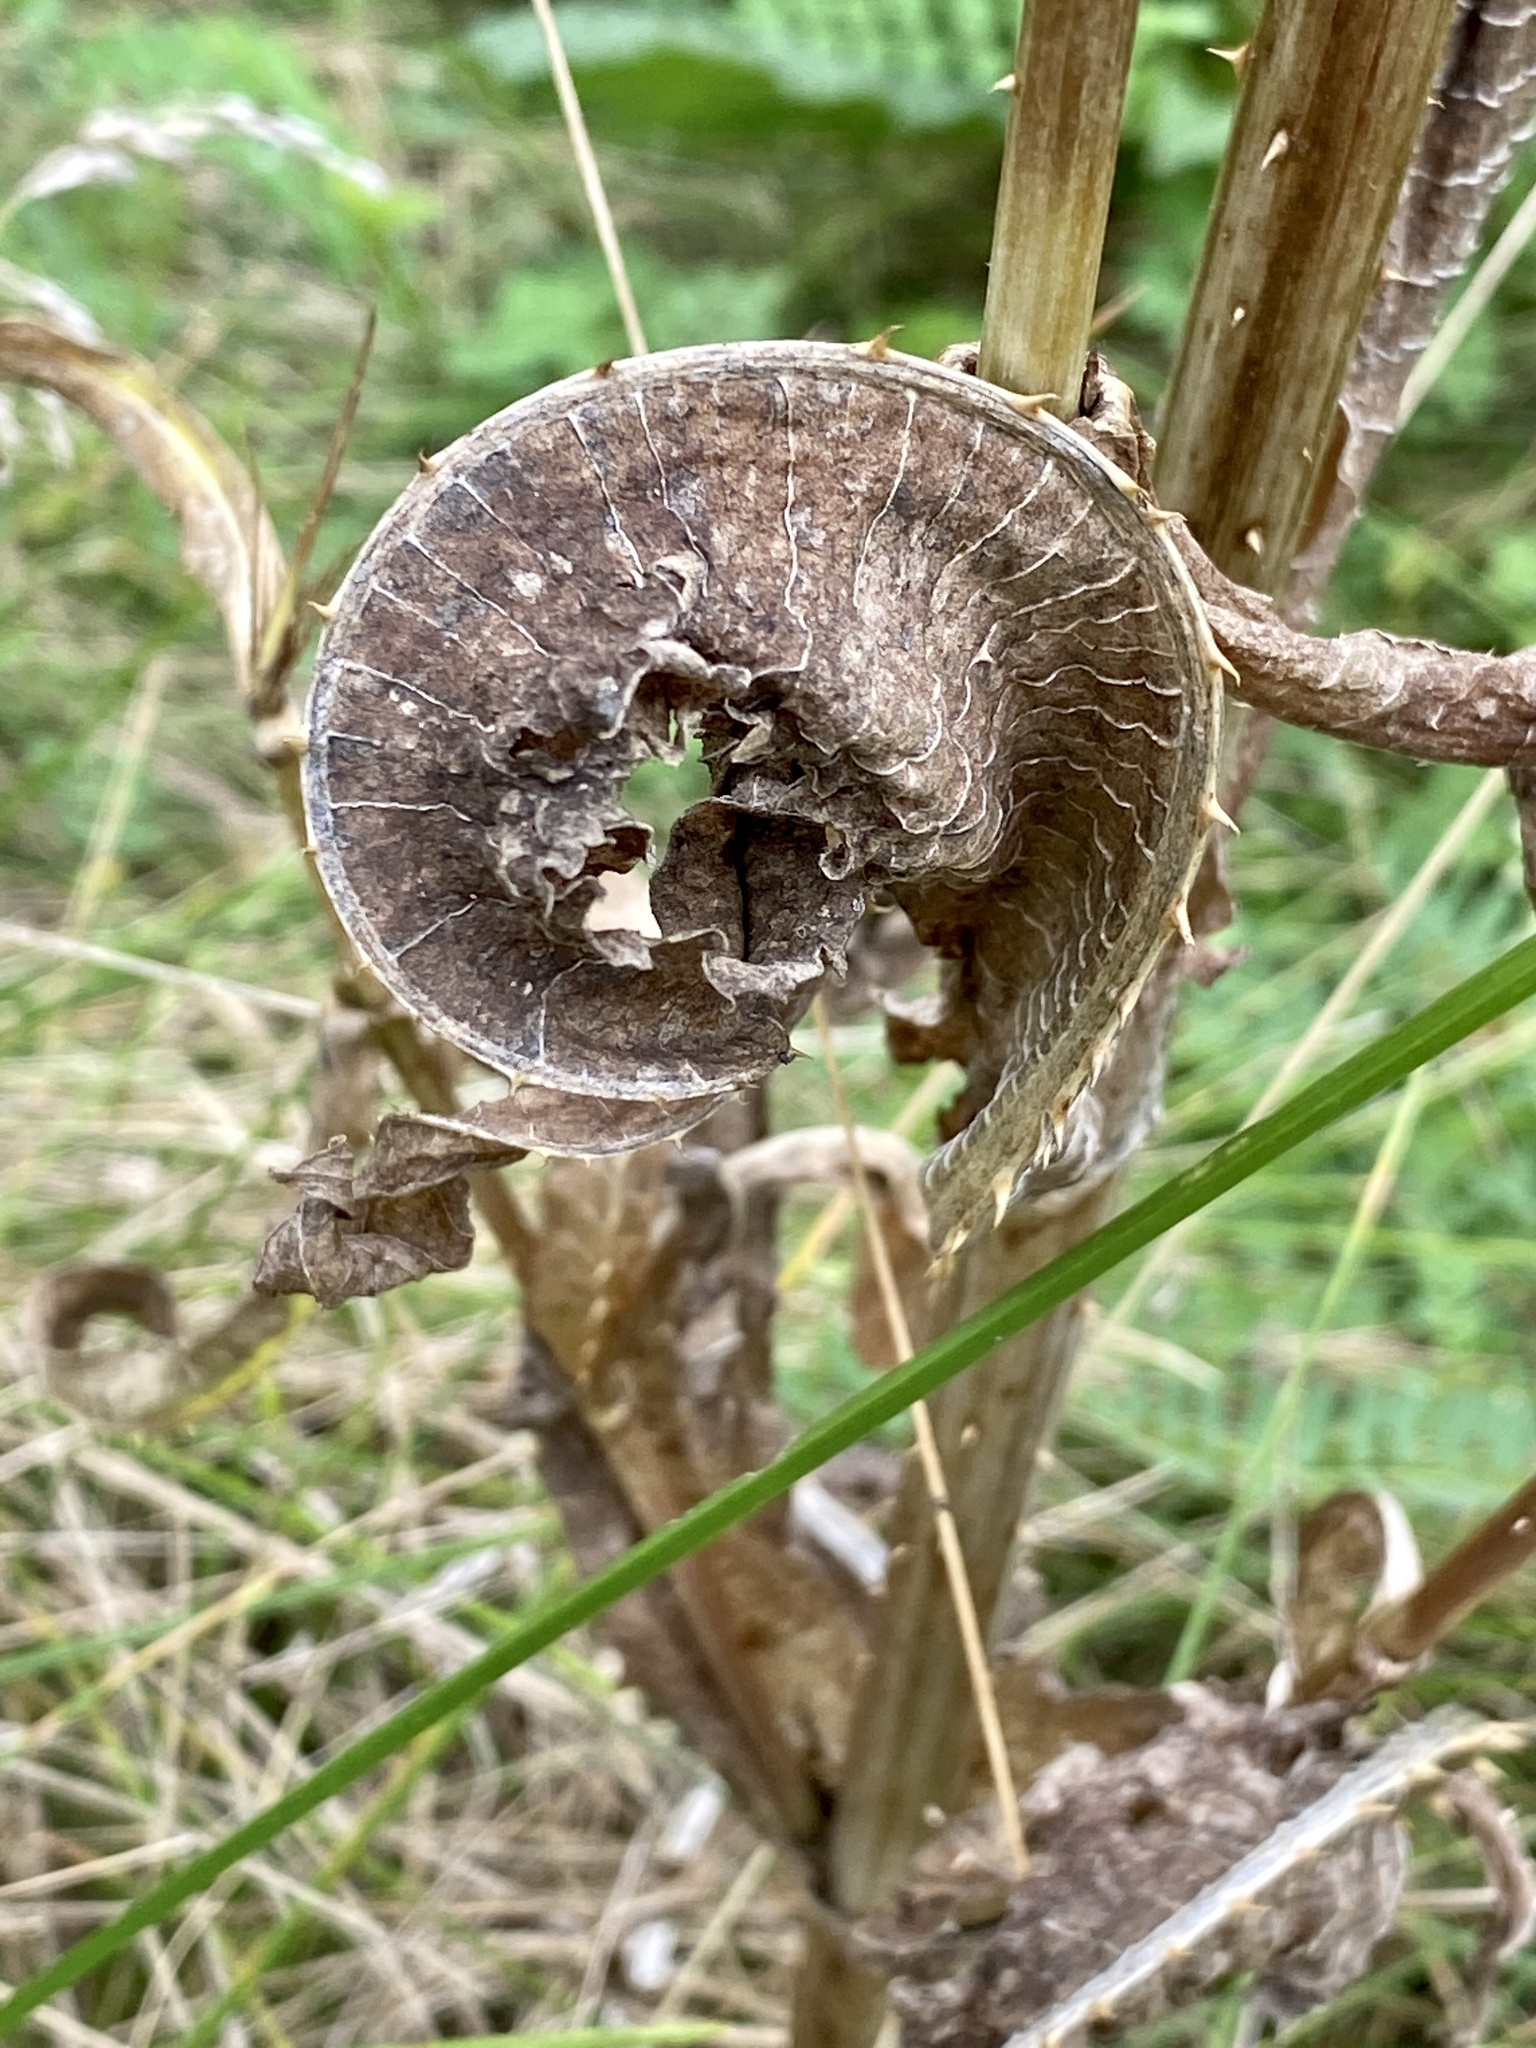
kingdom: Plantae
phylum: Tracheophyta
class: Magnoliopsida
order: Dipsacales
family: Caprifoliaceae
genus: Dipsacus
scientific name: Dipsacus fullonum
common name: Teasel
